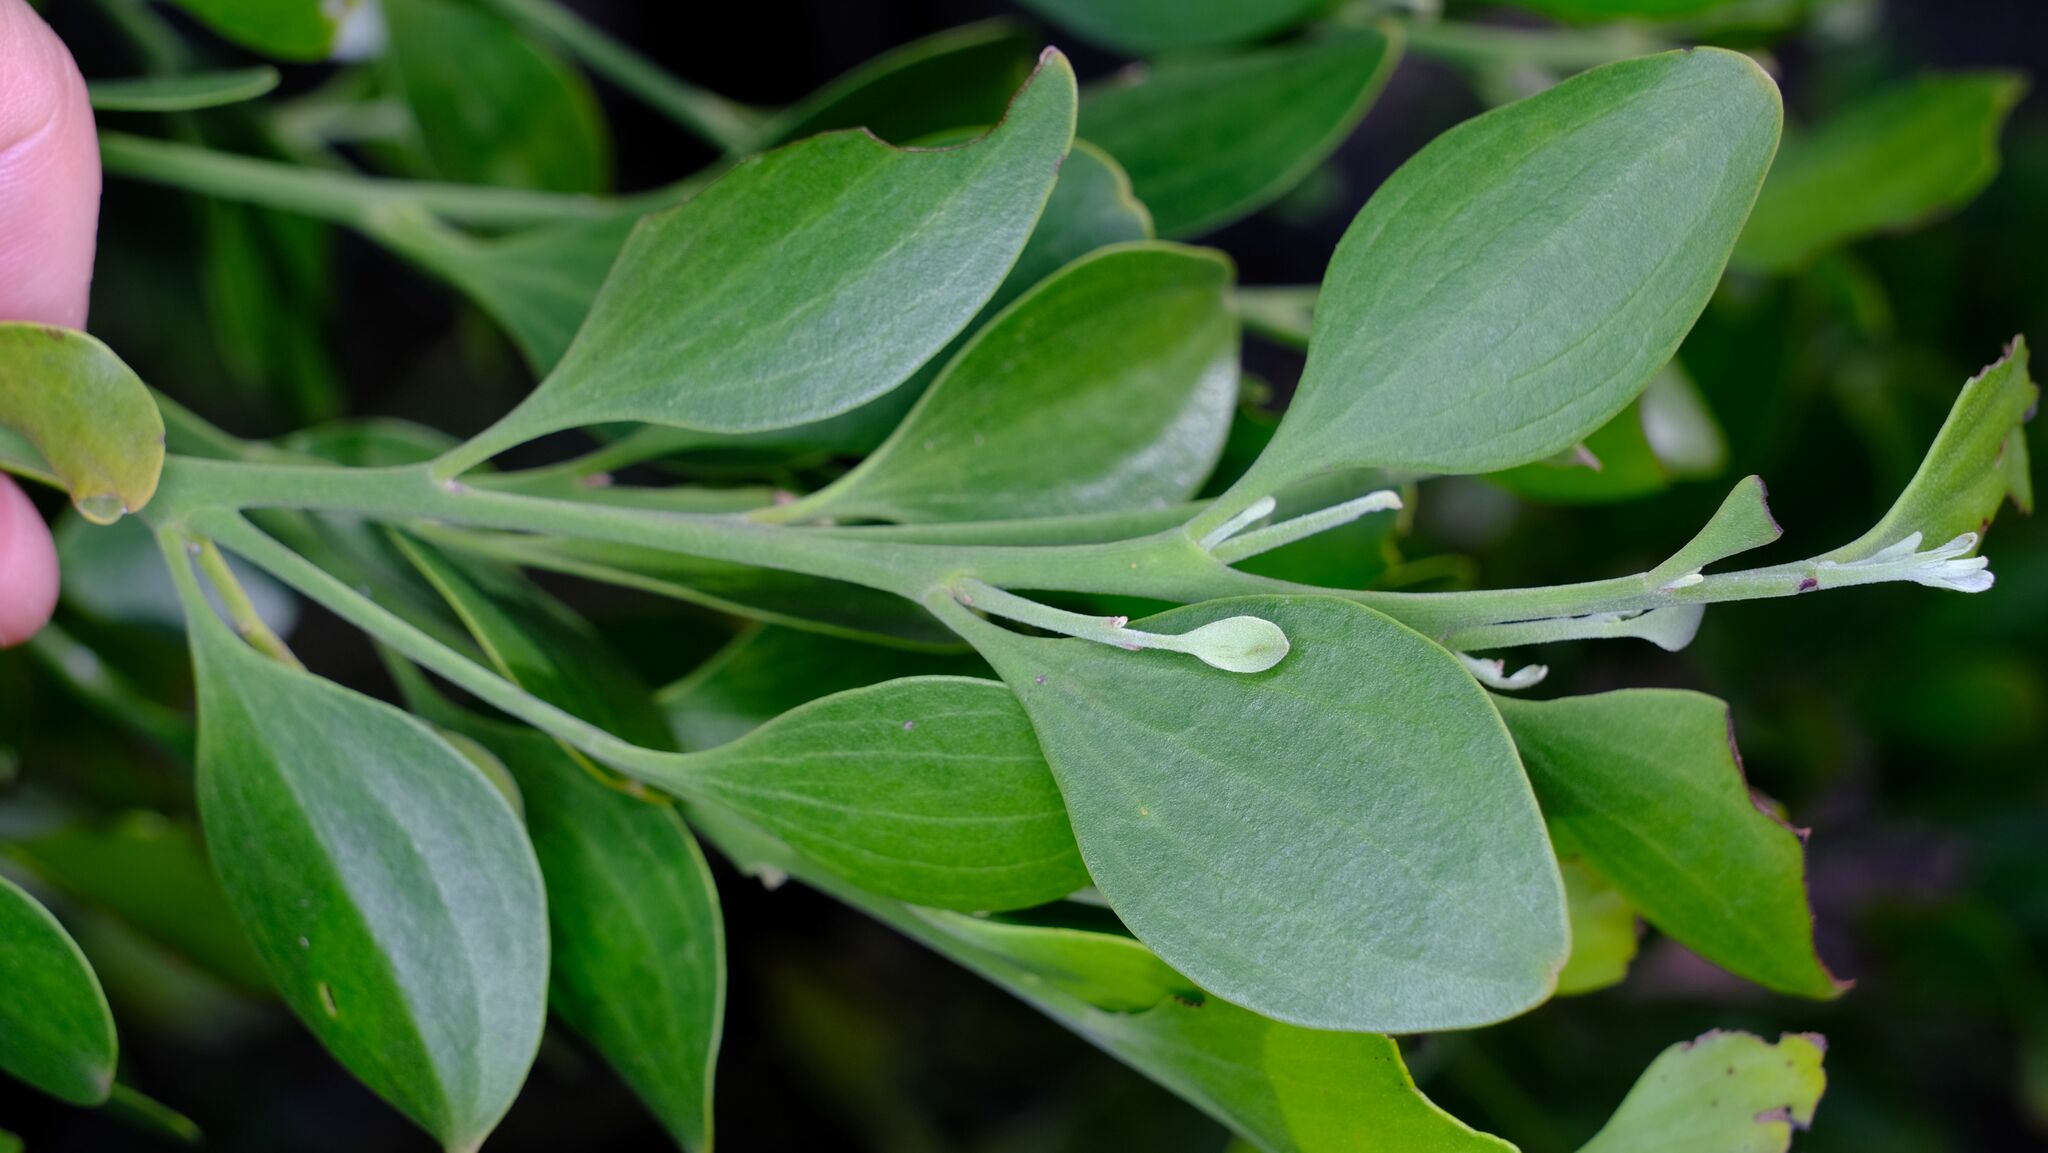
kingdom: Plantae
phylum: Tracheophyta
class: Magnoliopsida
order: Santalales
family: Santalaceae
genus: Exocarpos
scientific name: Exocarpos latifolius
